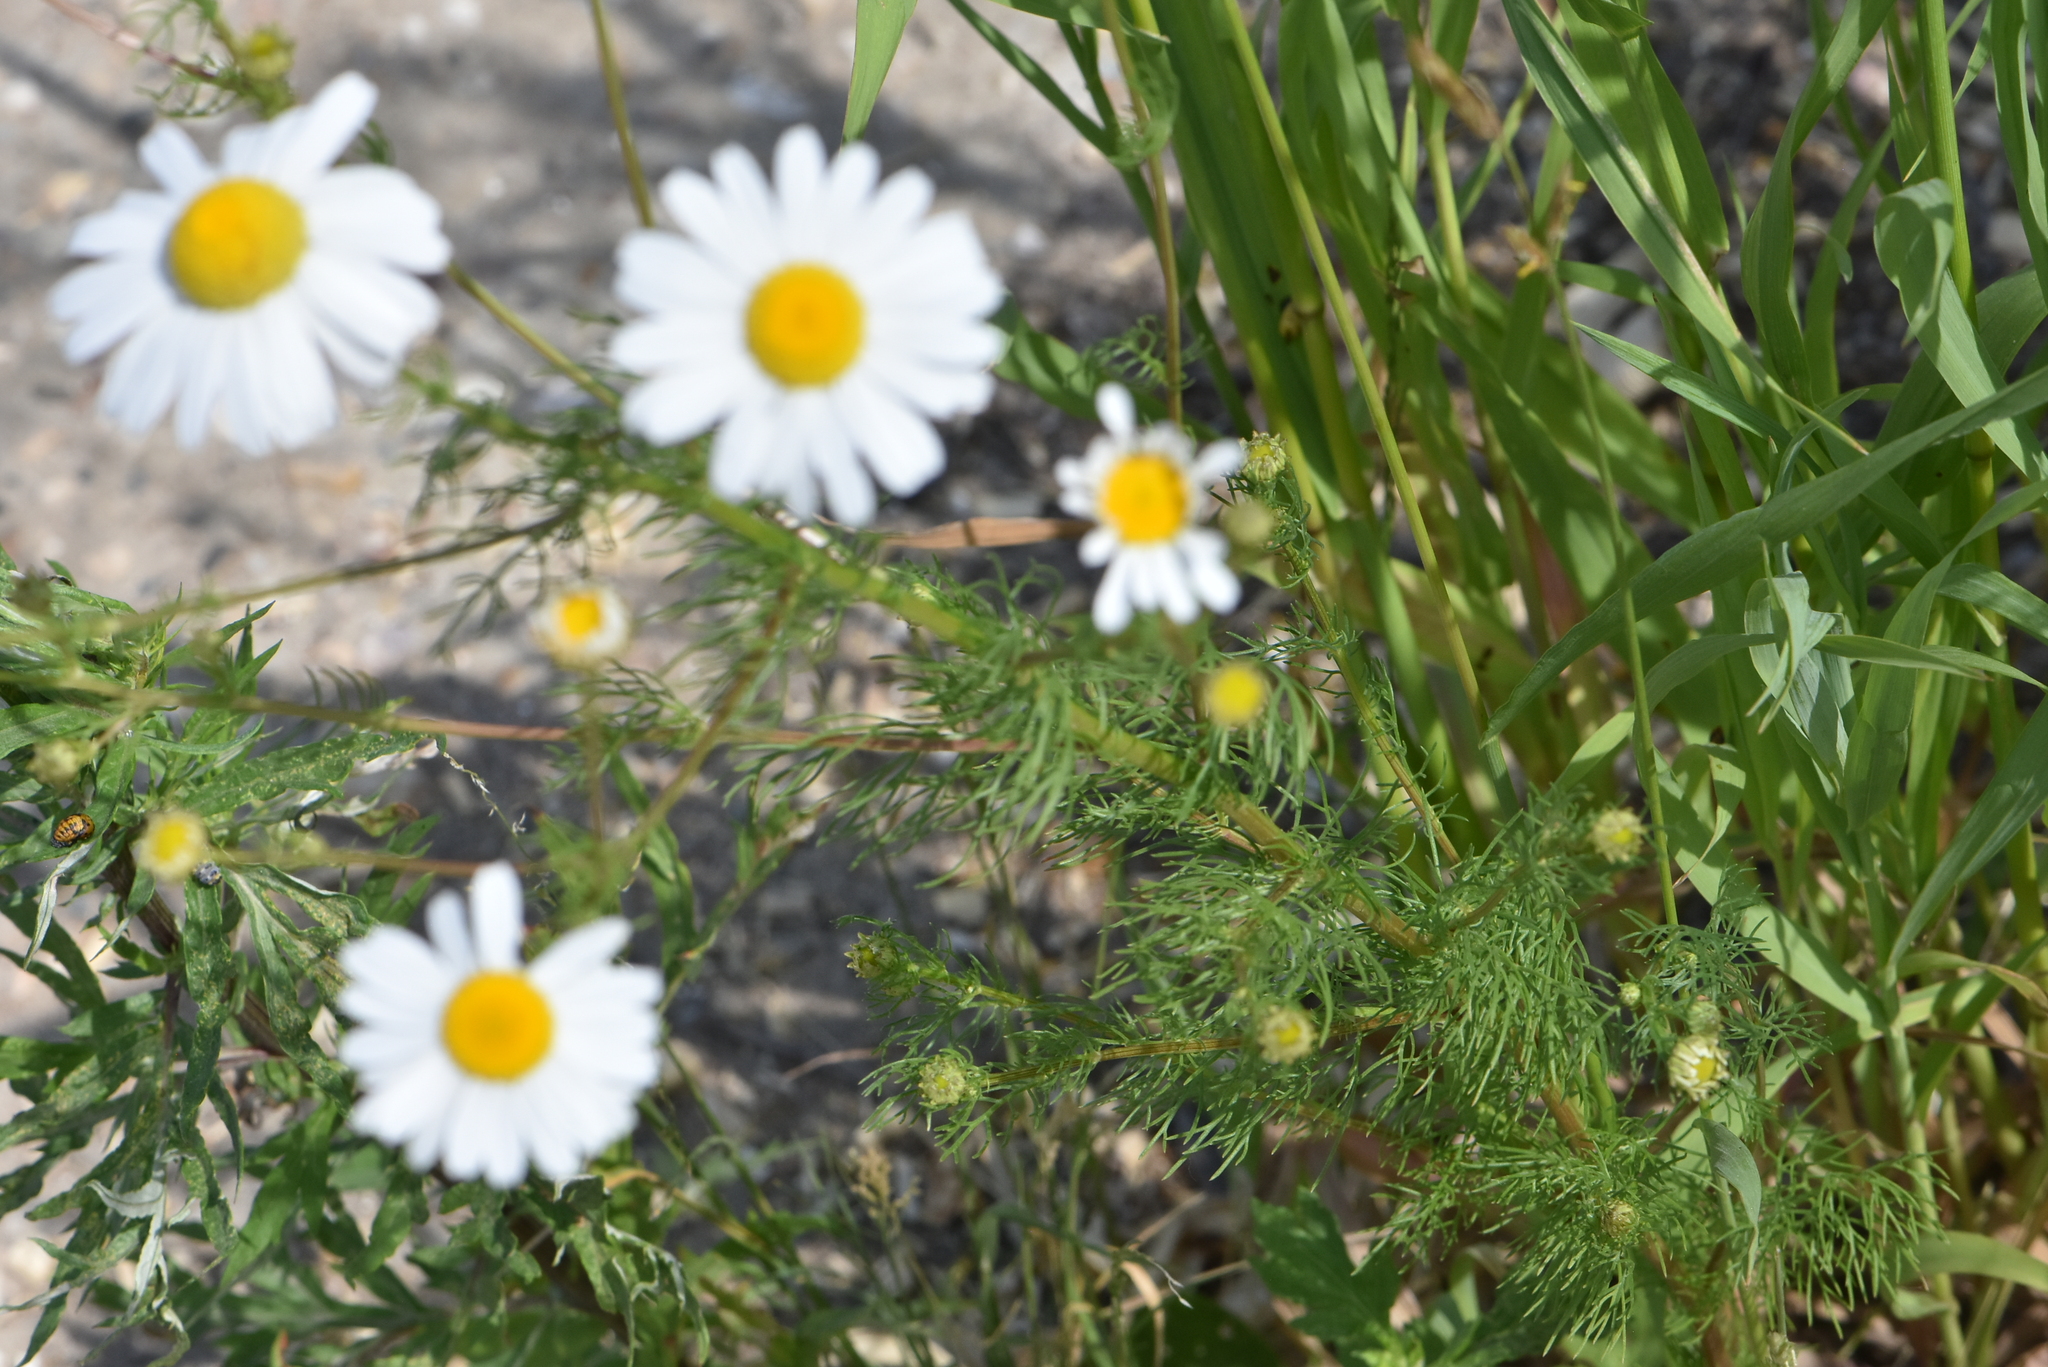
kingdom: Plantae
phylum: Tracheophyta
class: Magnoliopsida
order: Asterales
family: Asteraceae
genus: Tripleurospermum
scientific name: Tripleurospermum inodorum
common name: Scentless mayweed
